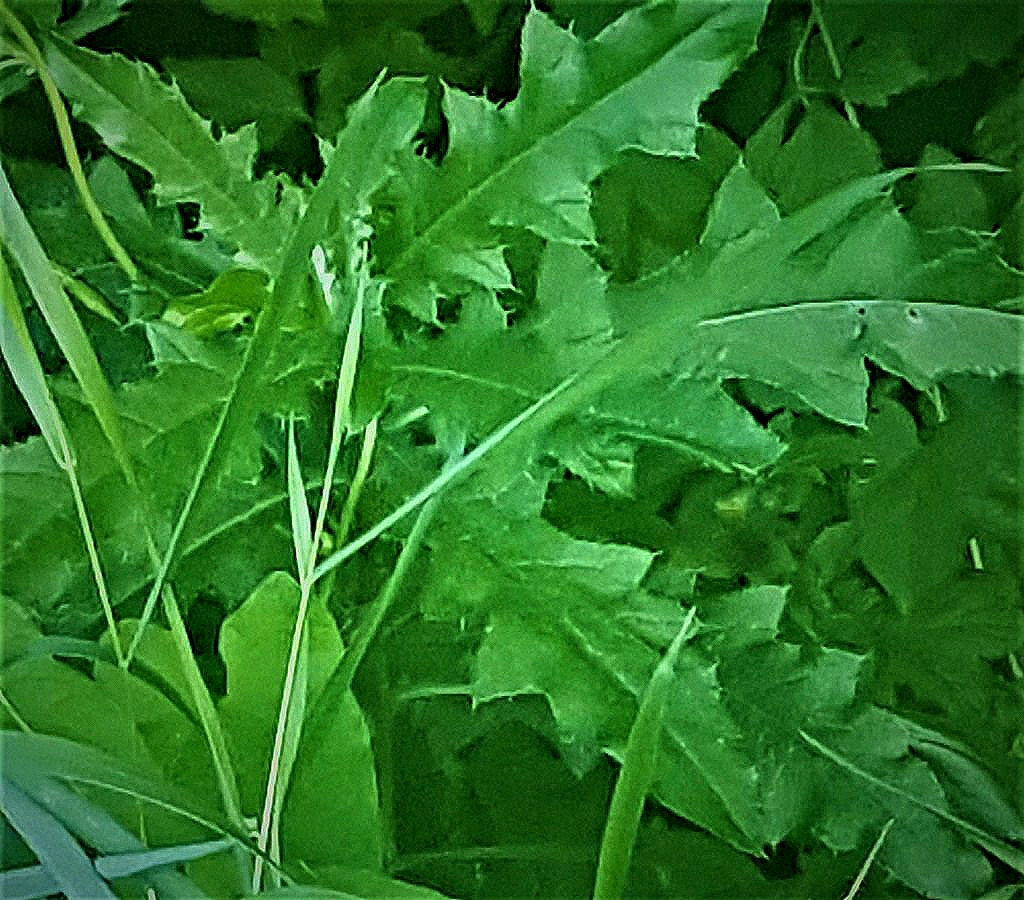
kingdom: Plantae
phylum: Tracheophyta
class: Magnoliopsida
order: Asterales
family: Asteraceae
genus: Cirsium
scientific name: Cirsium arvense
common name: Creeping thistle
